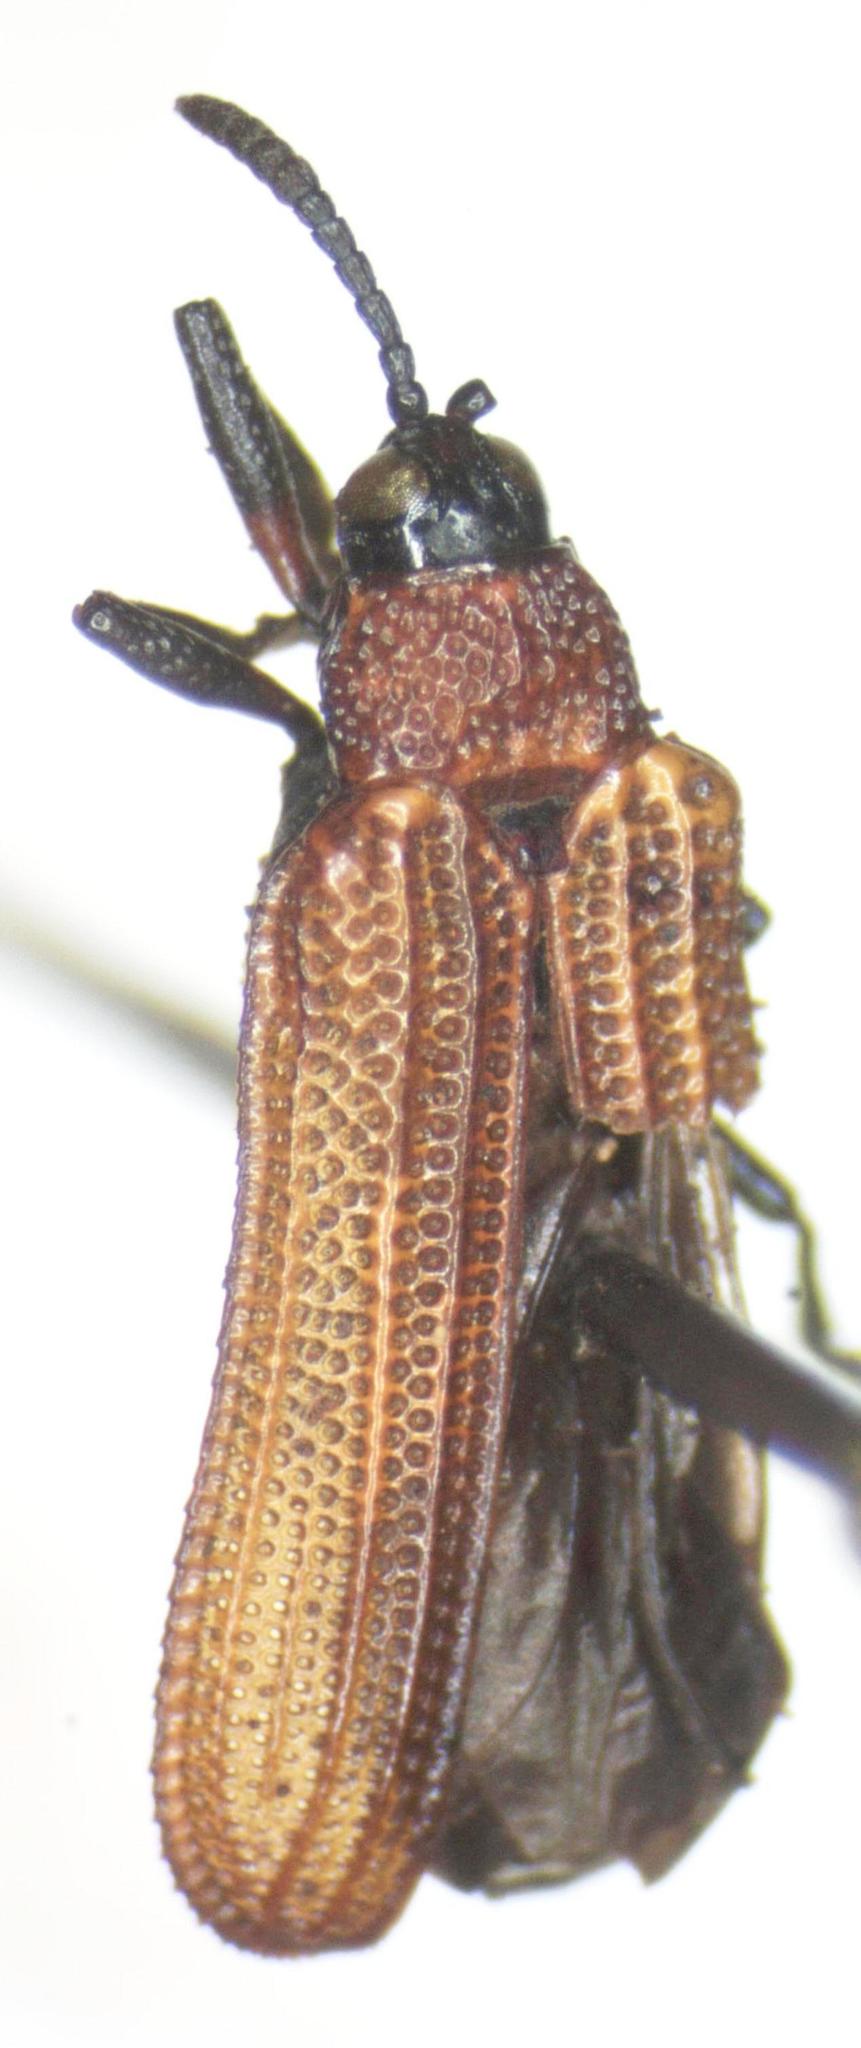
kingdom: Animalia
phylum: Arthropoda
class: Insecta
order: Coleoptera
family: Chrysomelidae
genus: Chalepus
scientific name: Chalepus lateralis
